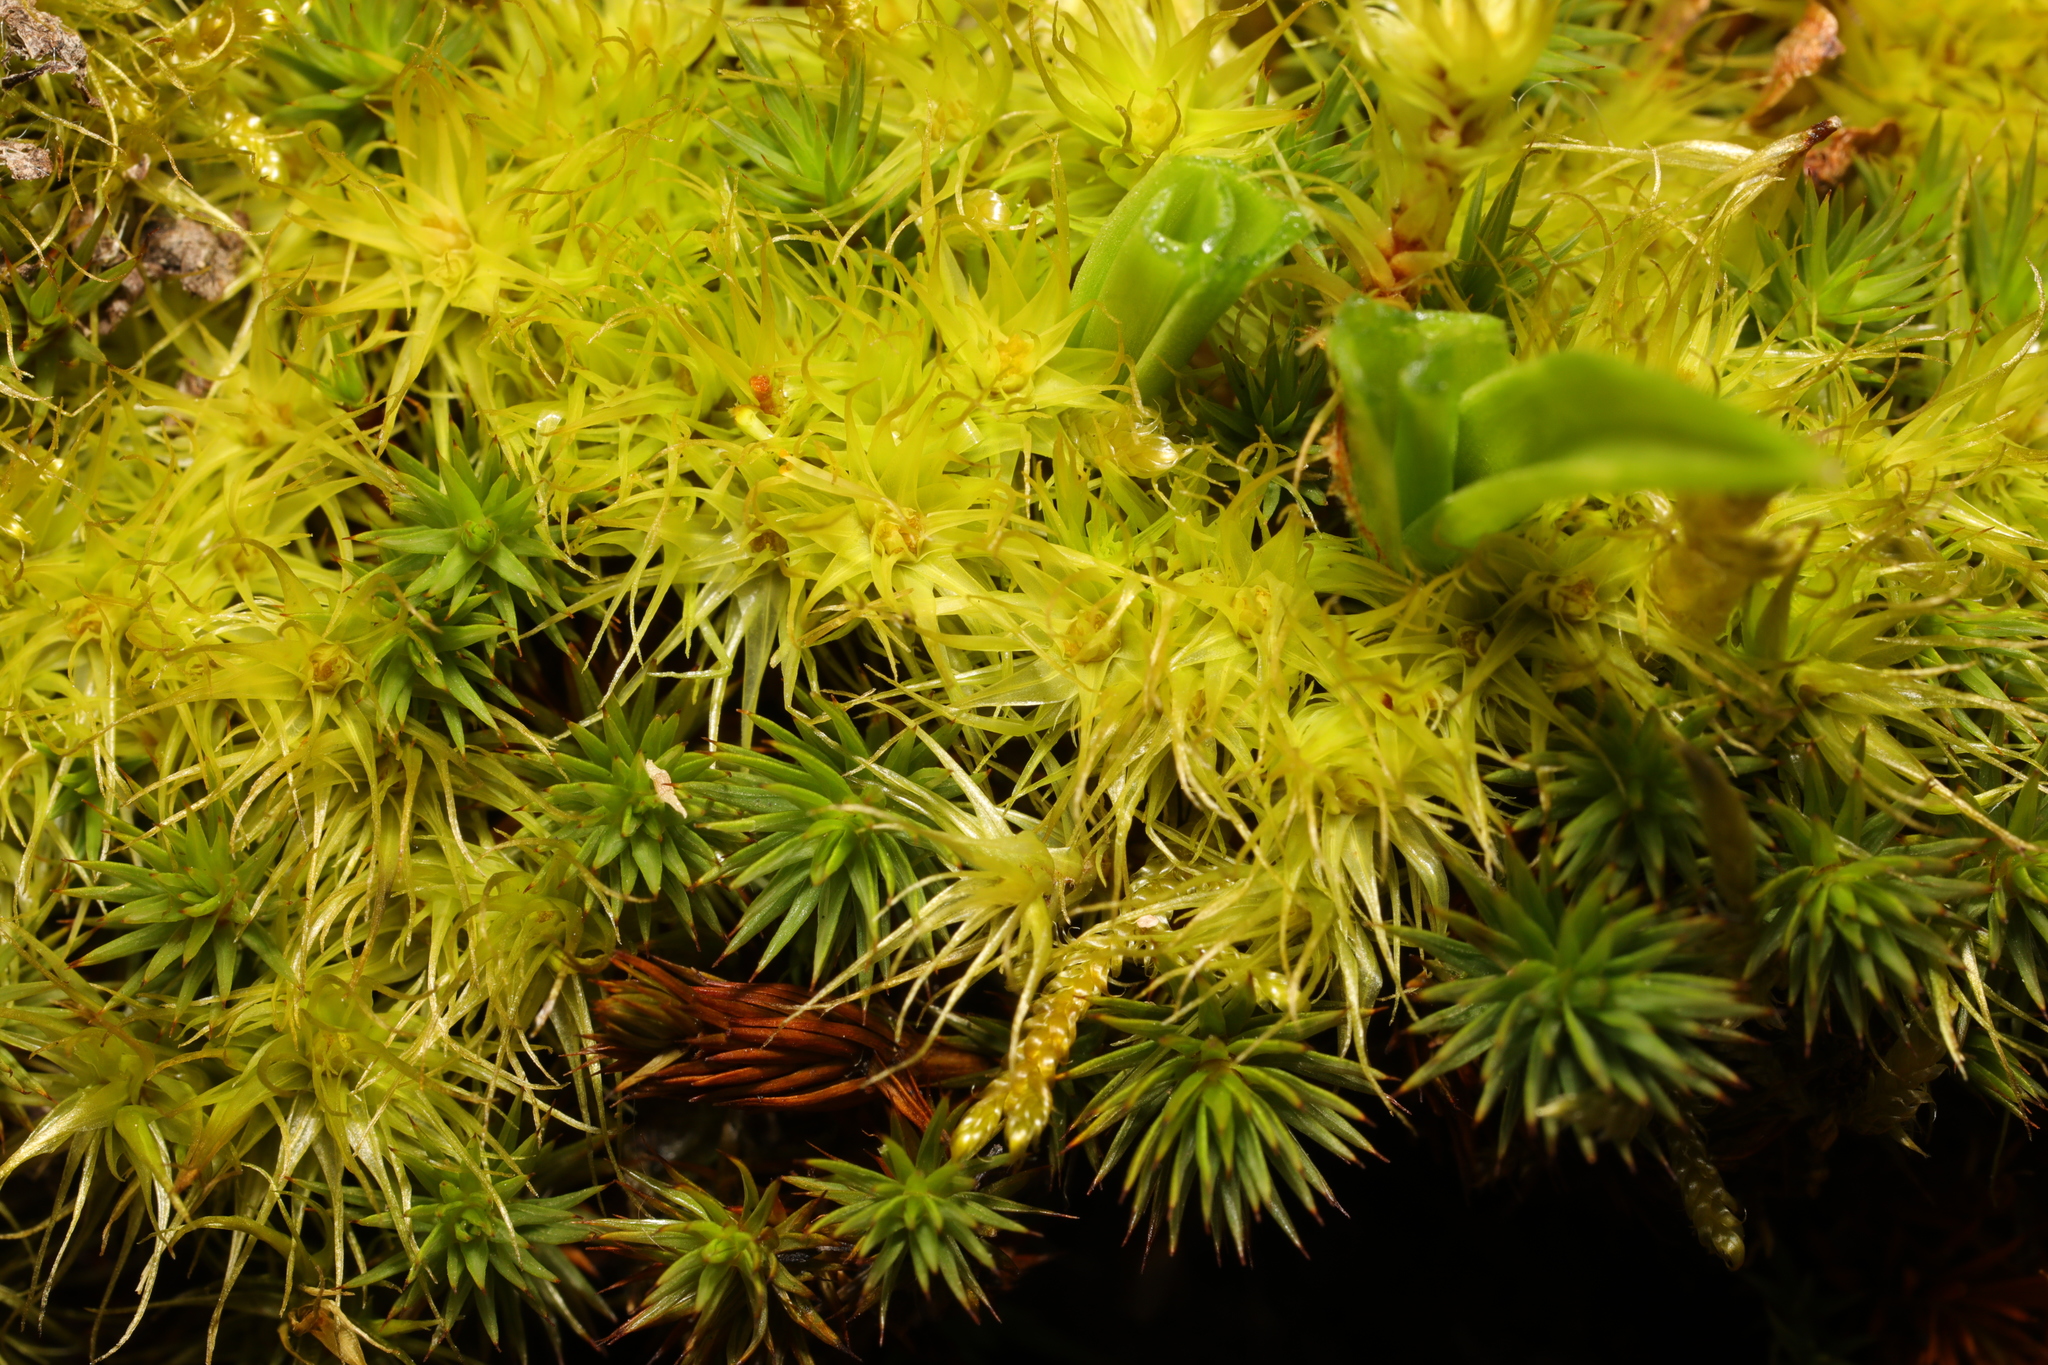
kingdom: Plantae
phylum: Bryophyta
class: Bryopsida
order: Dicranales
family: Dicranaceae
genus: Dicranum
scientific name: Dicranum scoparium
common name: Broom fork-moss
